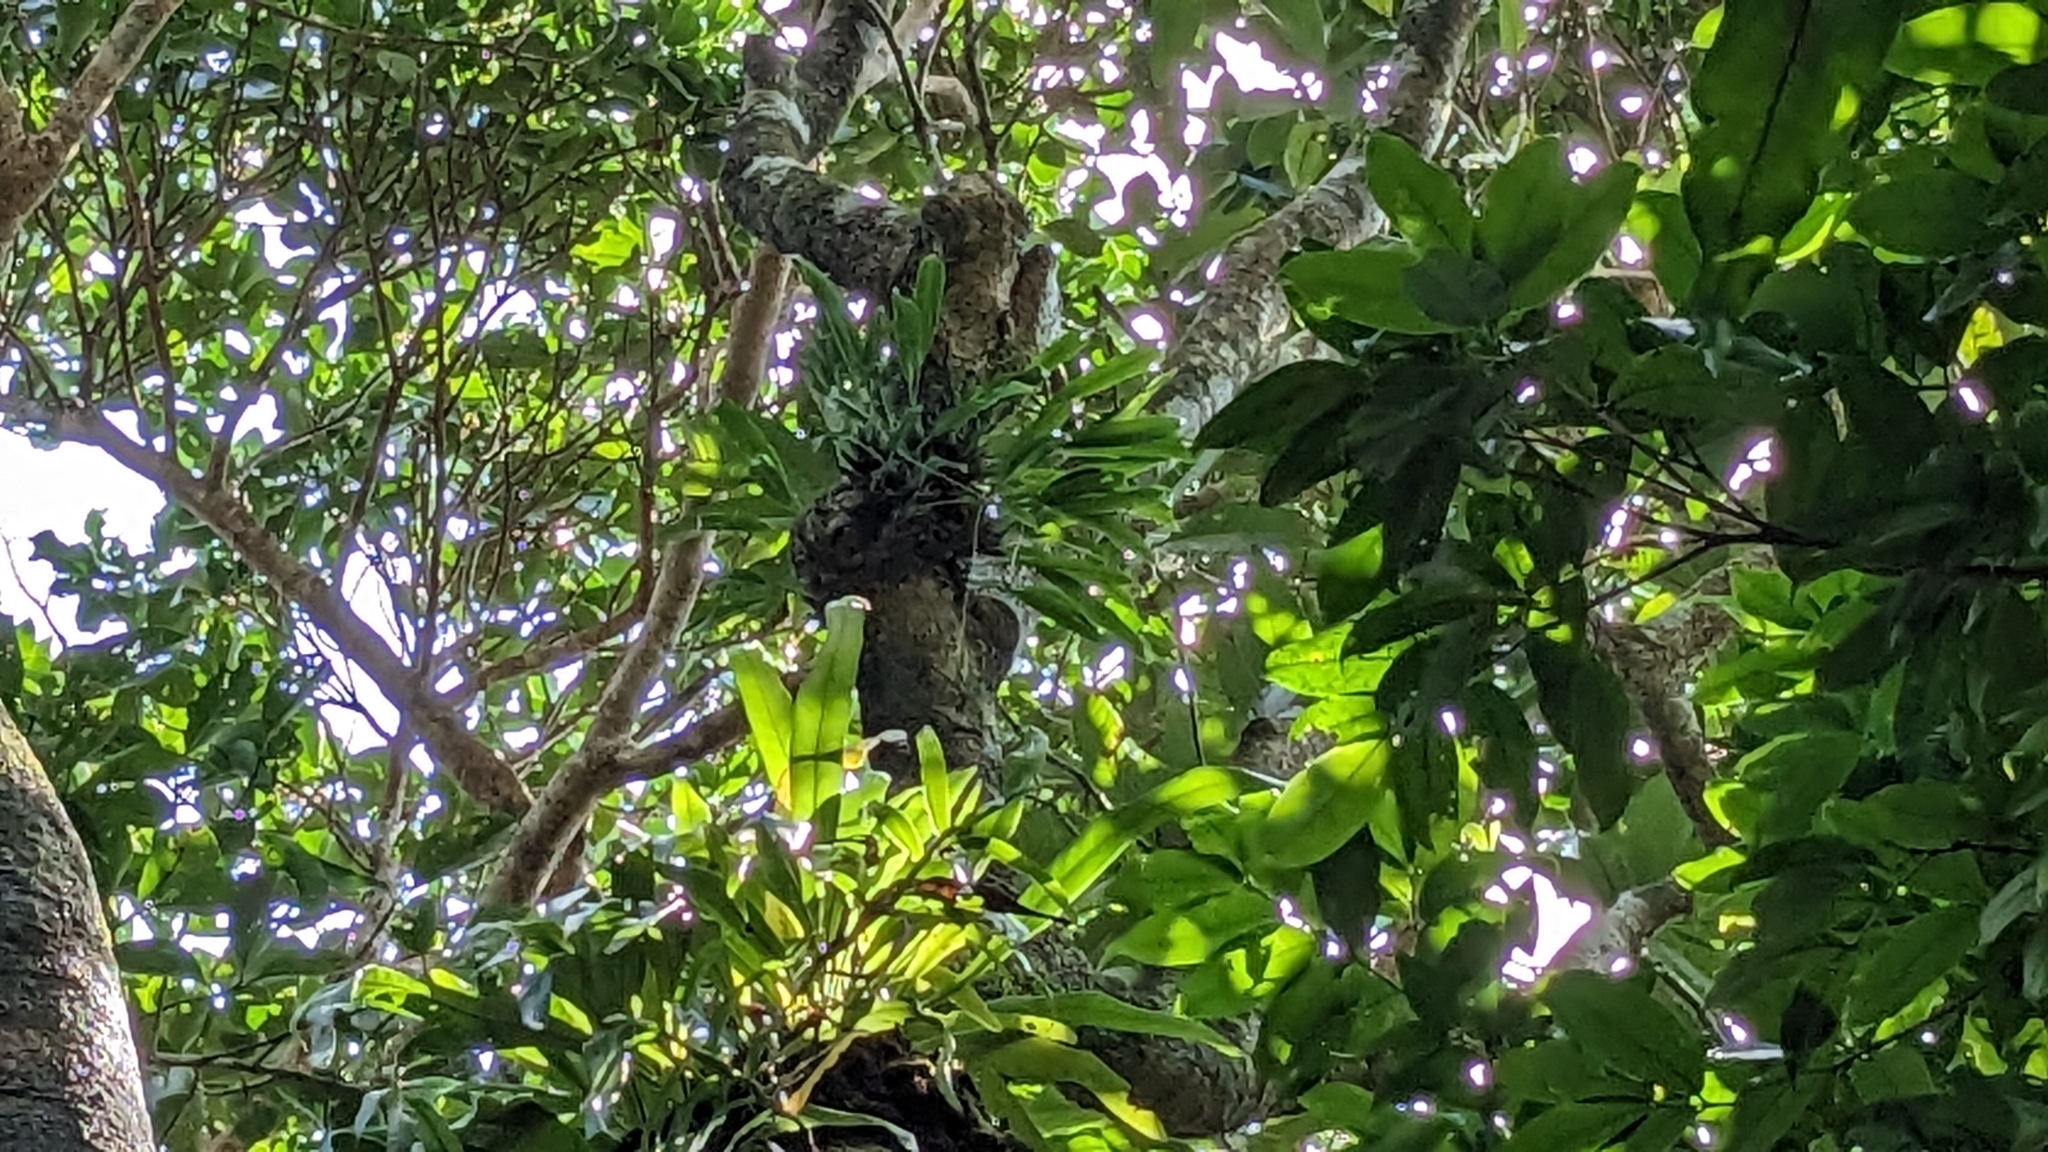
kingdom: Plantae
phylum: Tracheophyta
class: Liliopsida
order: Asparagales
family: Orchidaceae
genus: Coelogyne
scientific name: Coelogyne uncata
